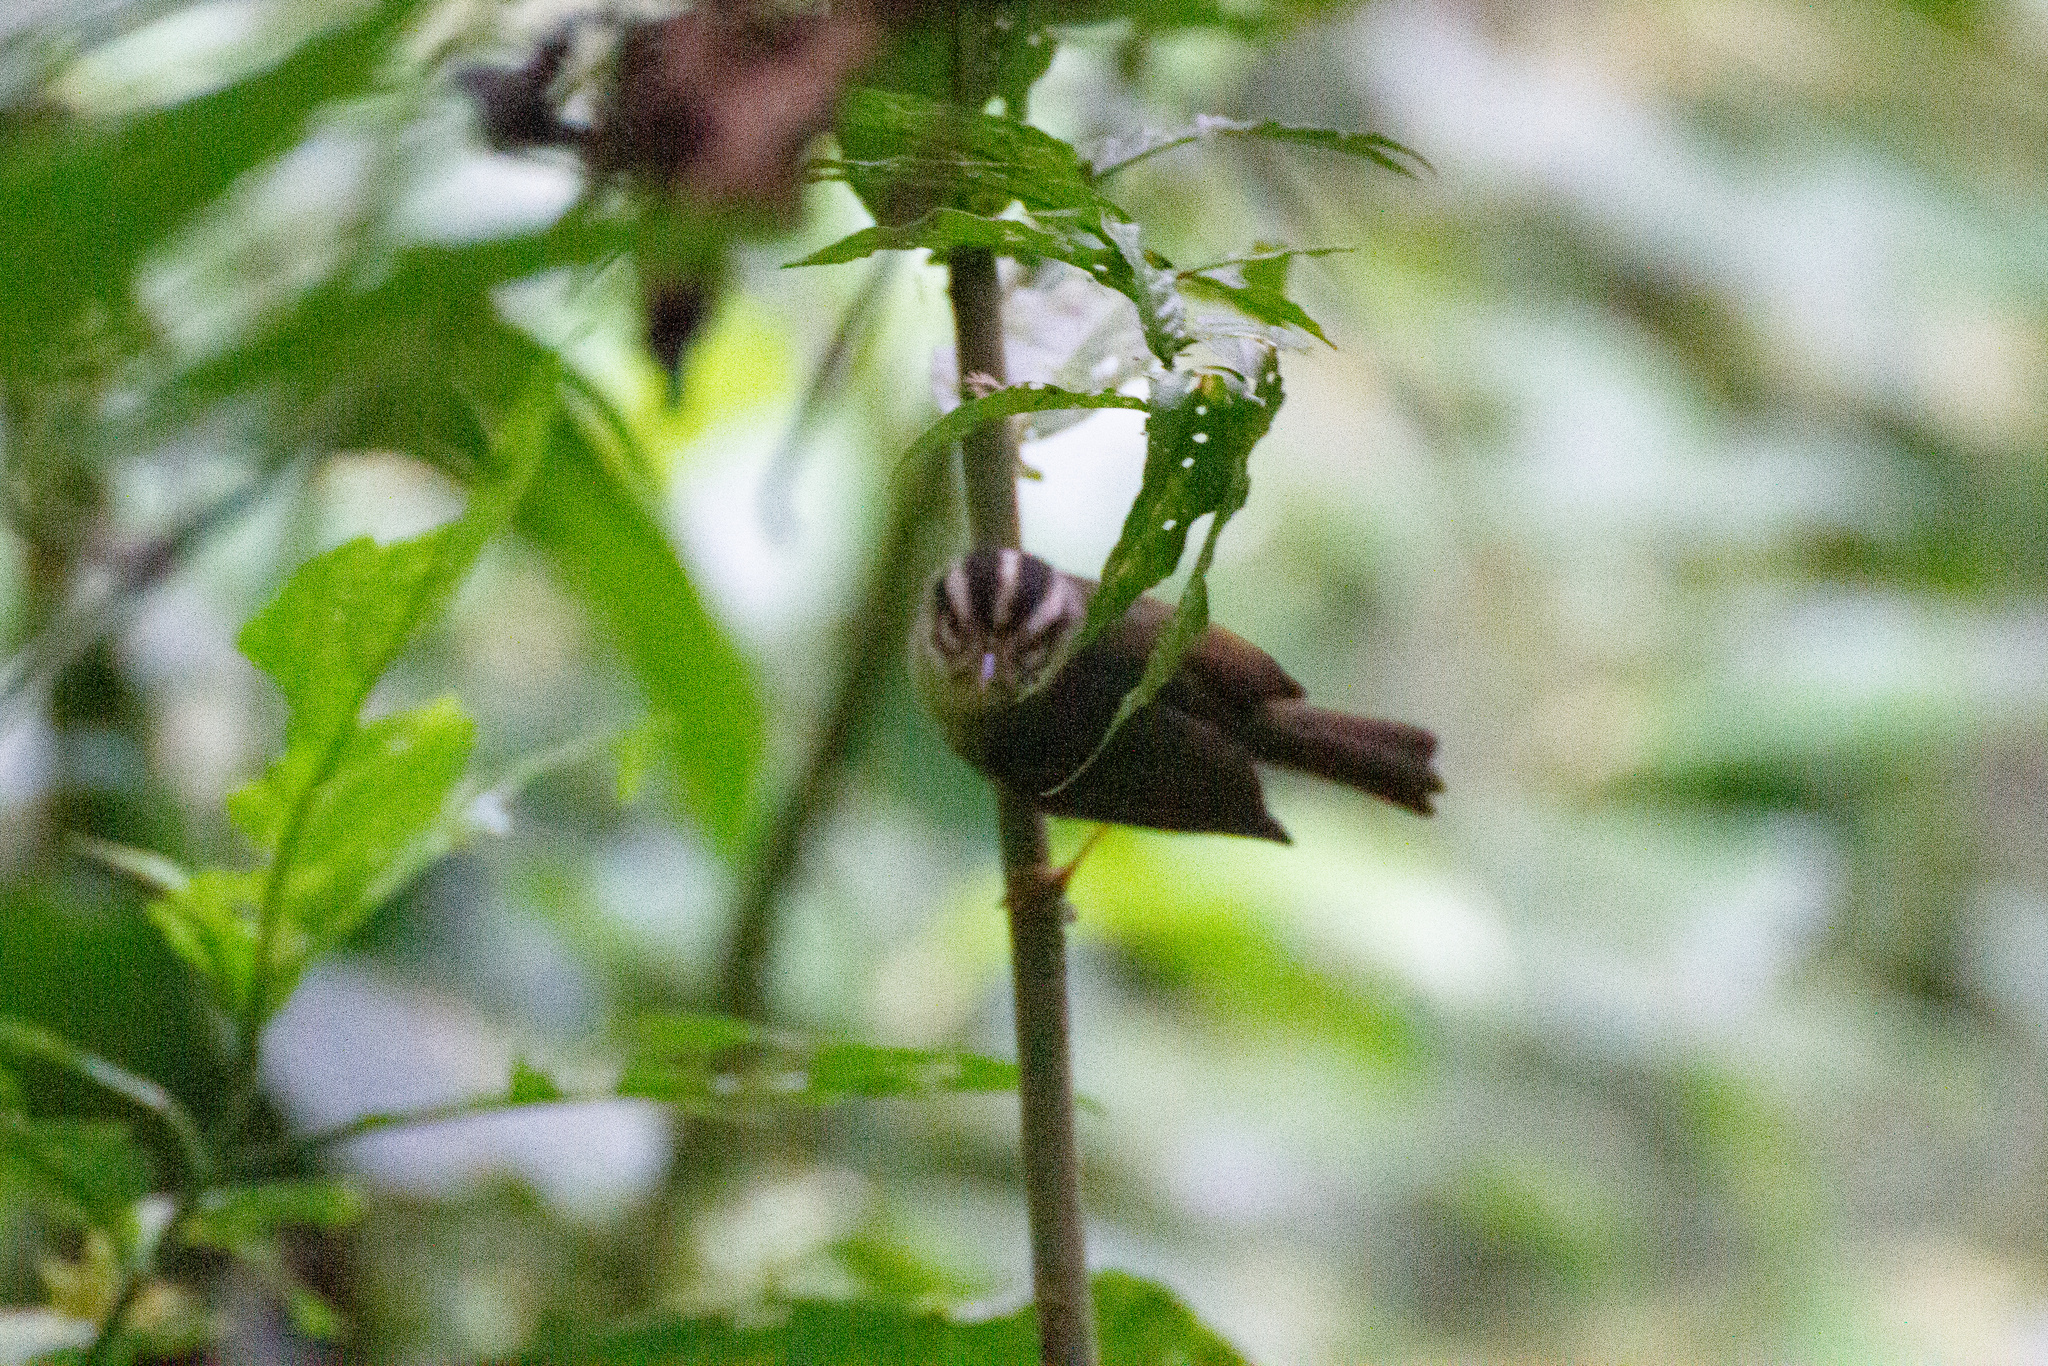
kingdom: Animalia
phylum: Chordata
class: Aves
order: Passeriformes
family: Parulidae
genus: Basileuterus
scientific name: Basileuterus melanotis
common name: Black-eared warbler
